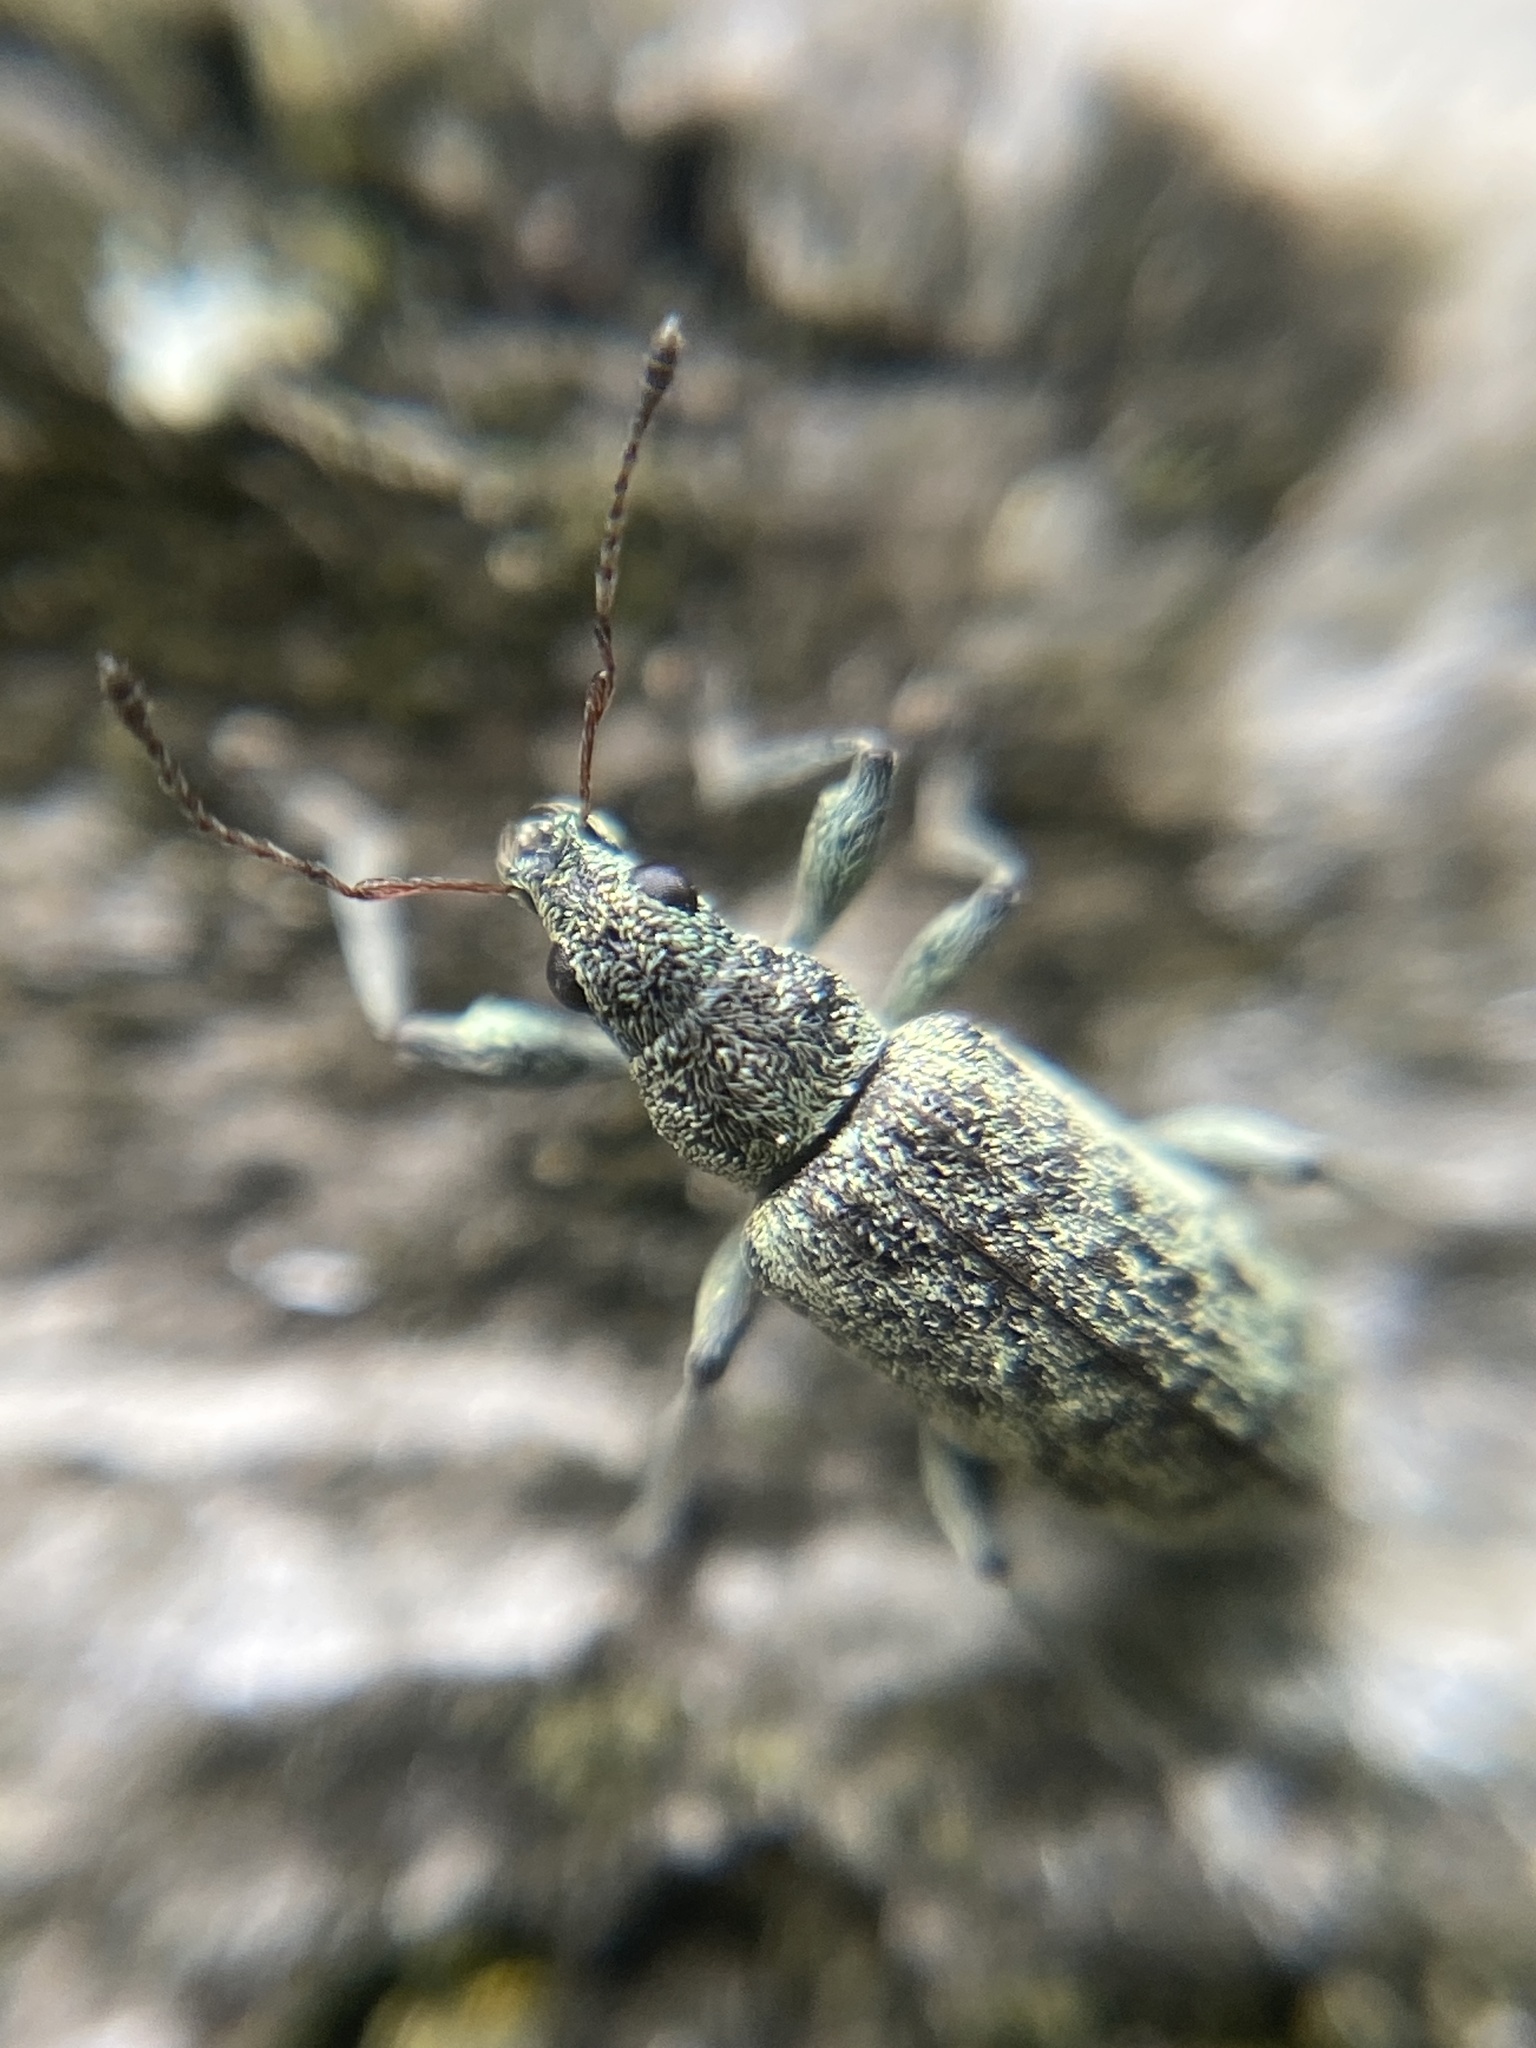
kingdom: Animalia
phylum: Arthropoda
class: Insecta
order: Coleoptera
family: Curculionidae
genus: Polydrusus
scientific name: Polydrusus cervinus
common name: Weevil
